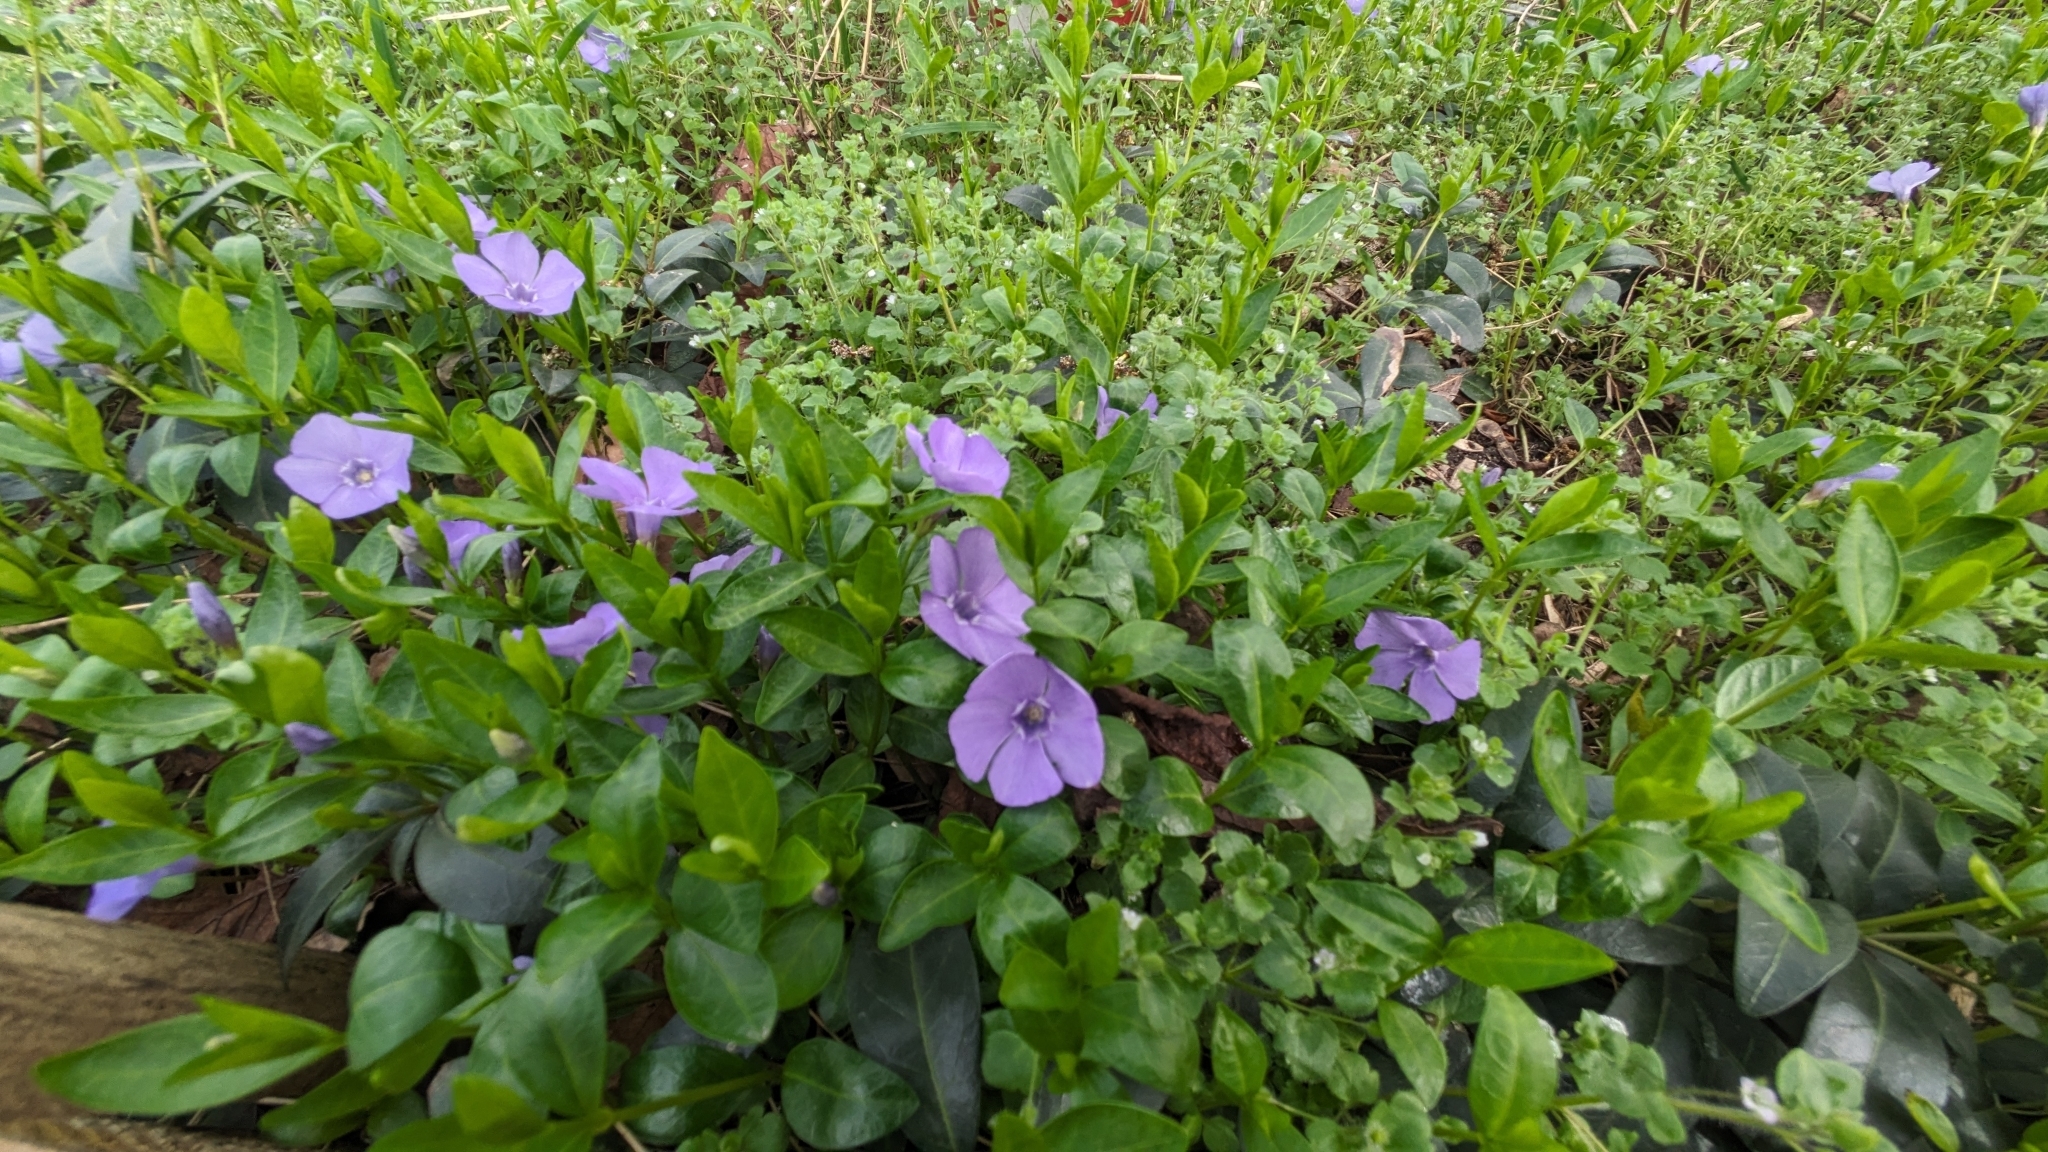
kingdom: Plantae
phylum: Tracheophyta
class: Magnoliopsida
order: Gentianales
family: Apocynaceae
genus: Vinca
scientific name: Vinca minor
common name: Lesser periwinkle
